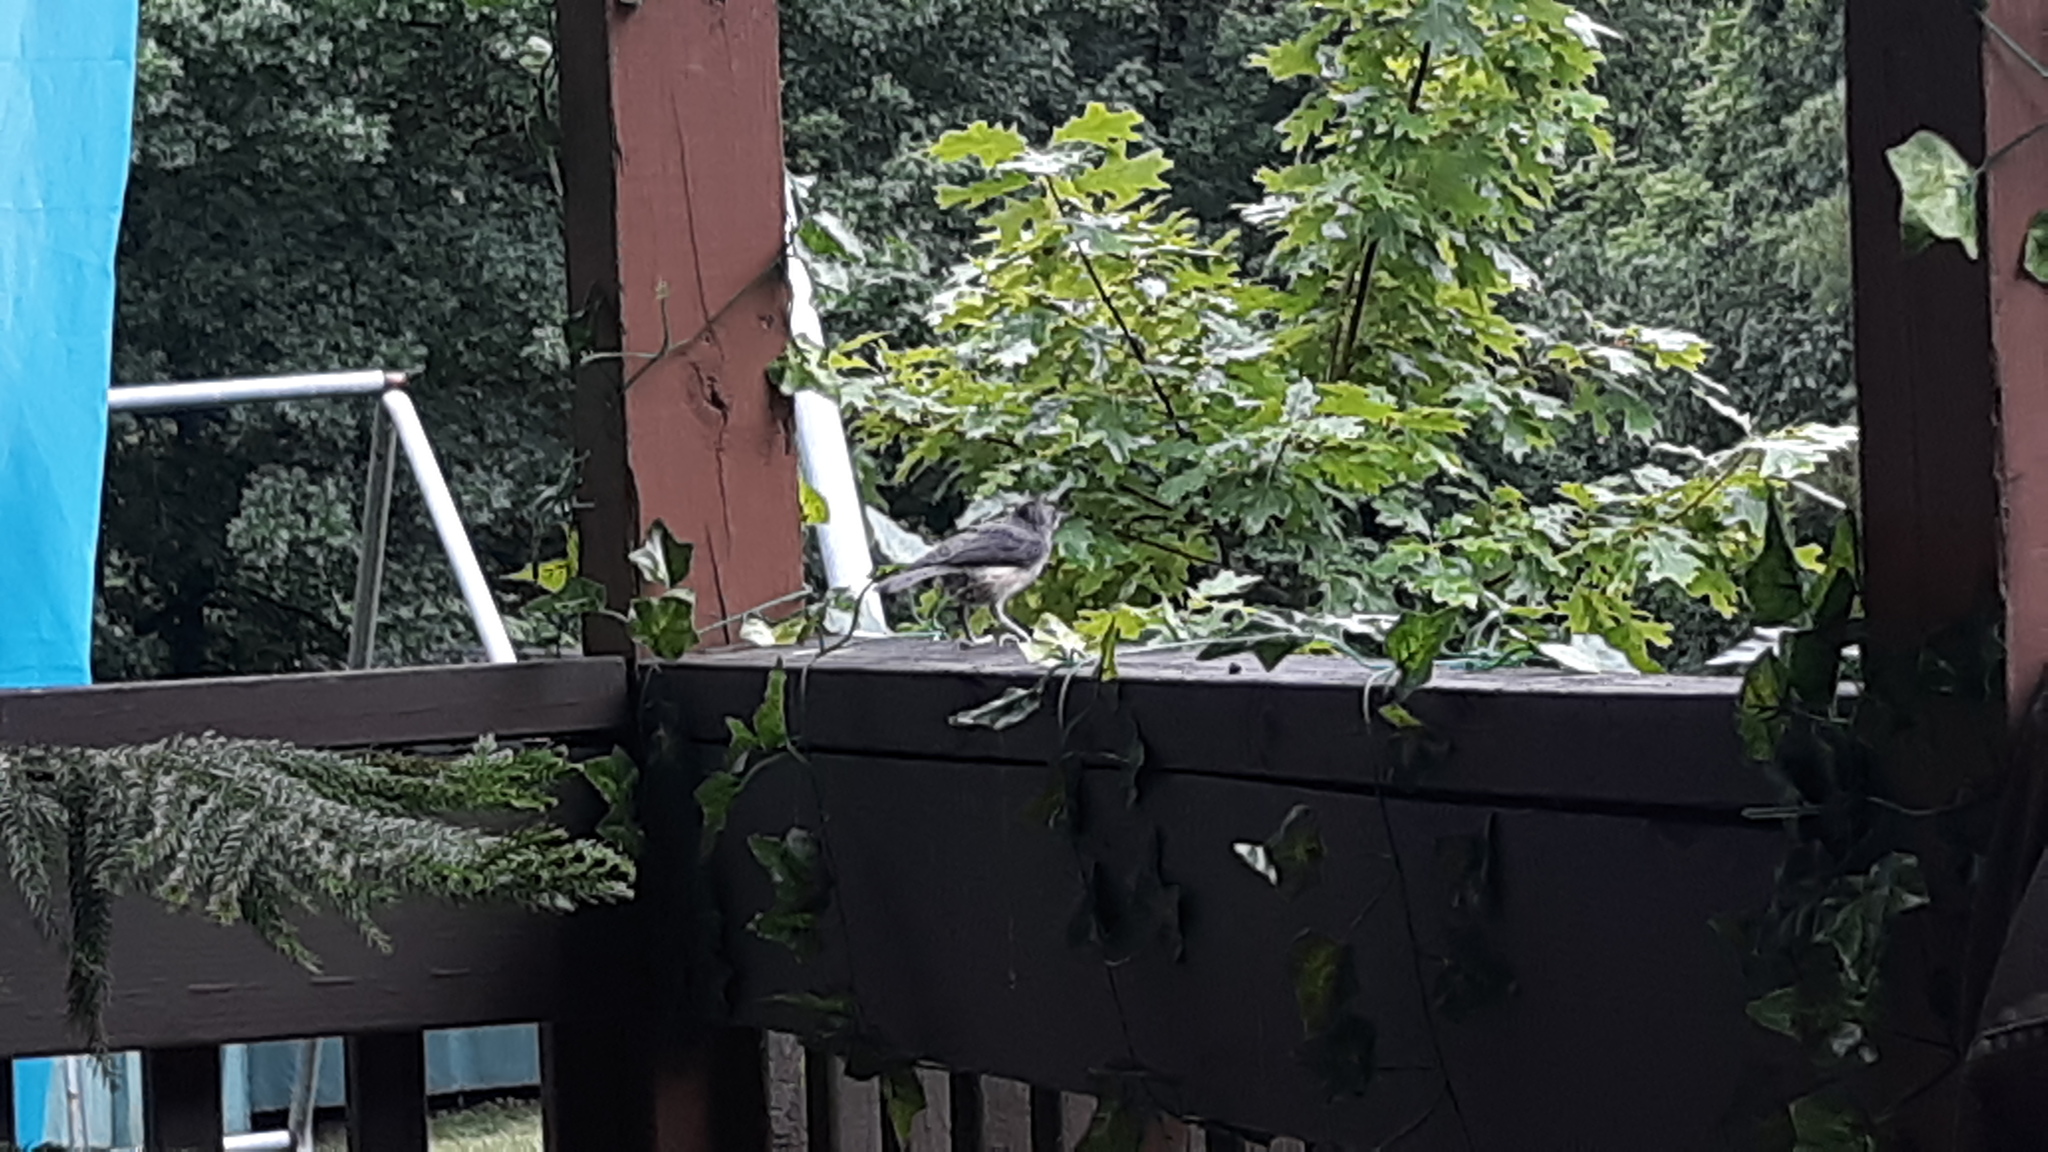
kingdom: Animalia
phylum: Chordata
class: Aves
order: Passeriformes
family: Paridae
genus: Baeolophus
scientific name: Baeolophus bicolor
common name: Tufted titmouse
